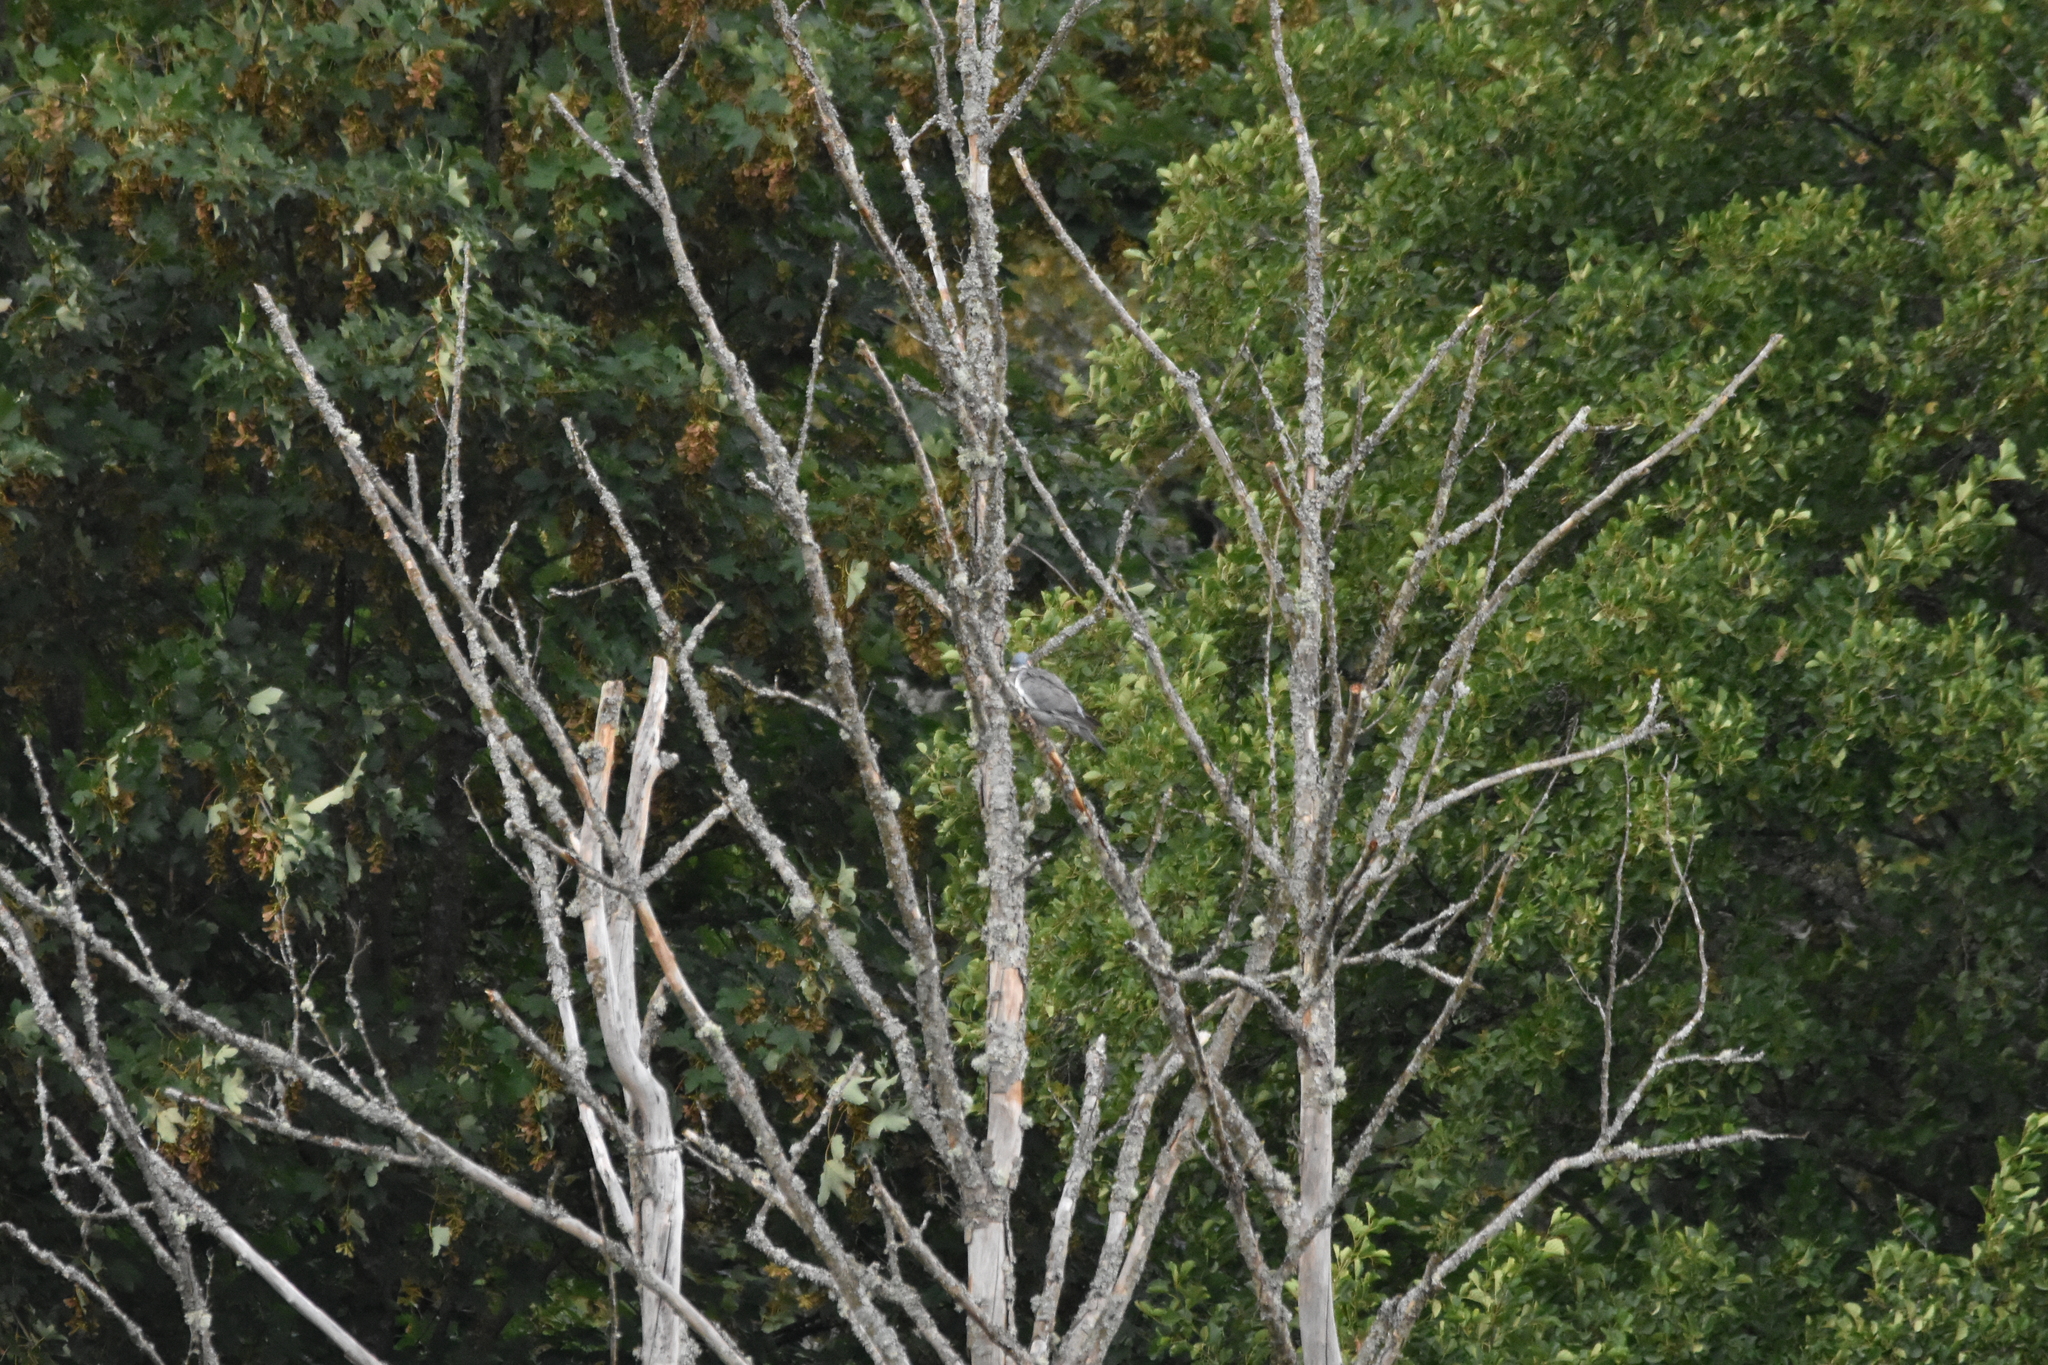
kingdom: Animalia
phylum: Chordata
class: Aves
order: Columbiformes
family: Columbidae
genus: Columba
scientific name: Columba palumbus
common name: Common wood pigeon
